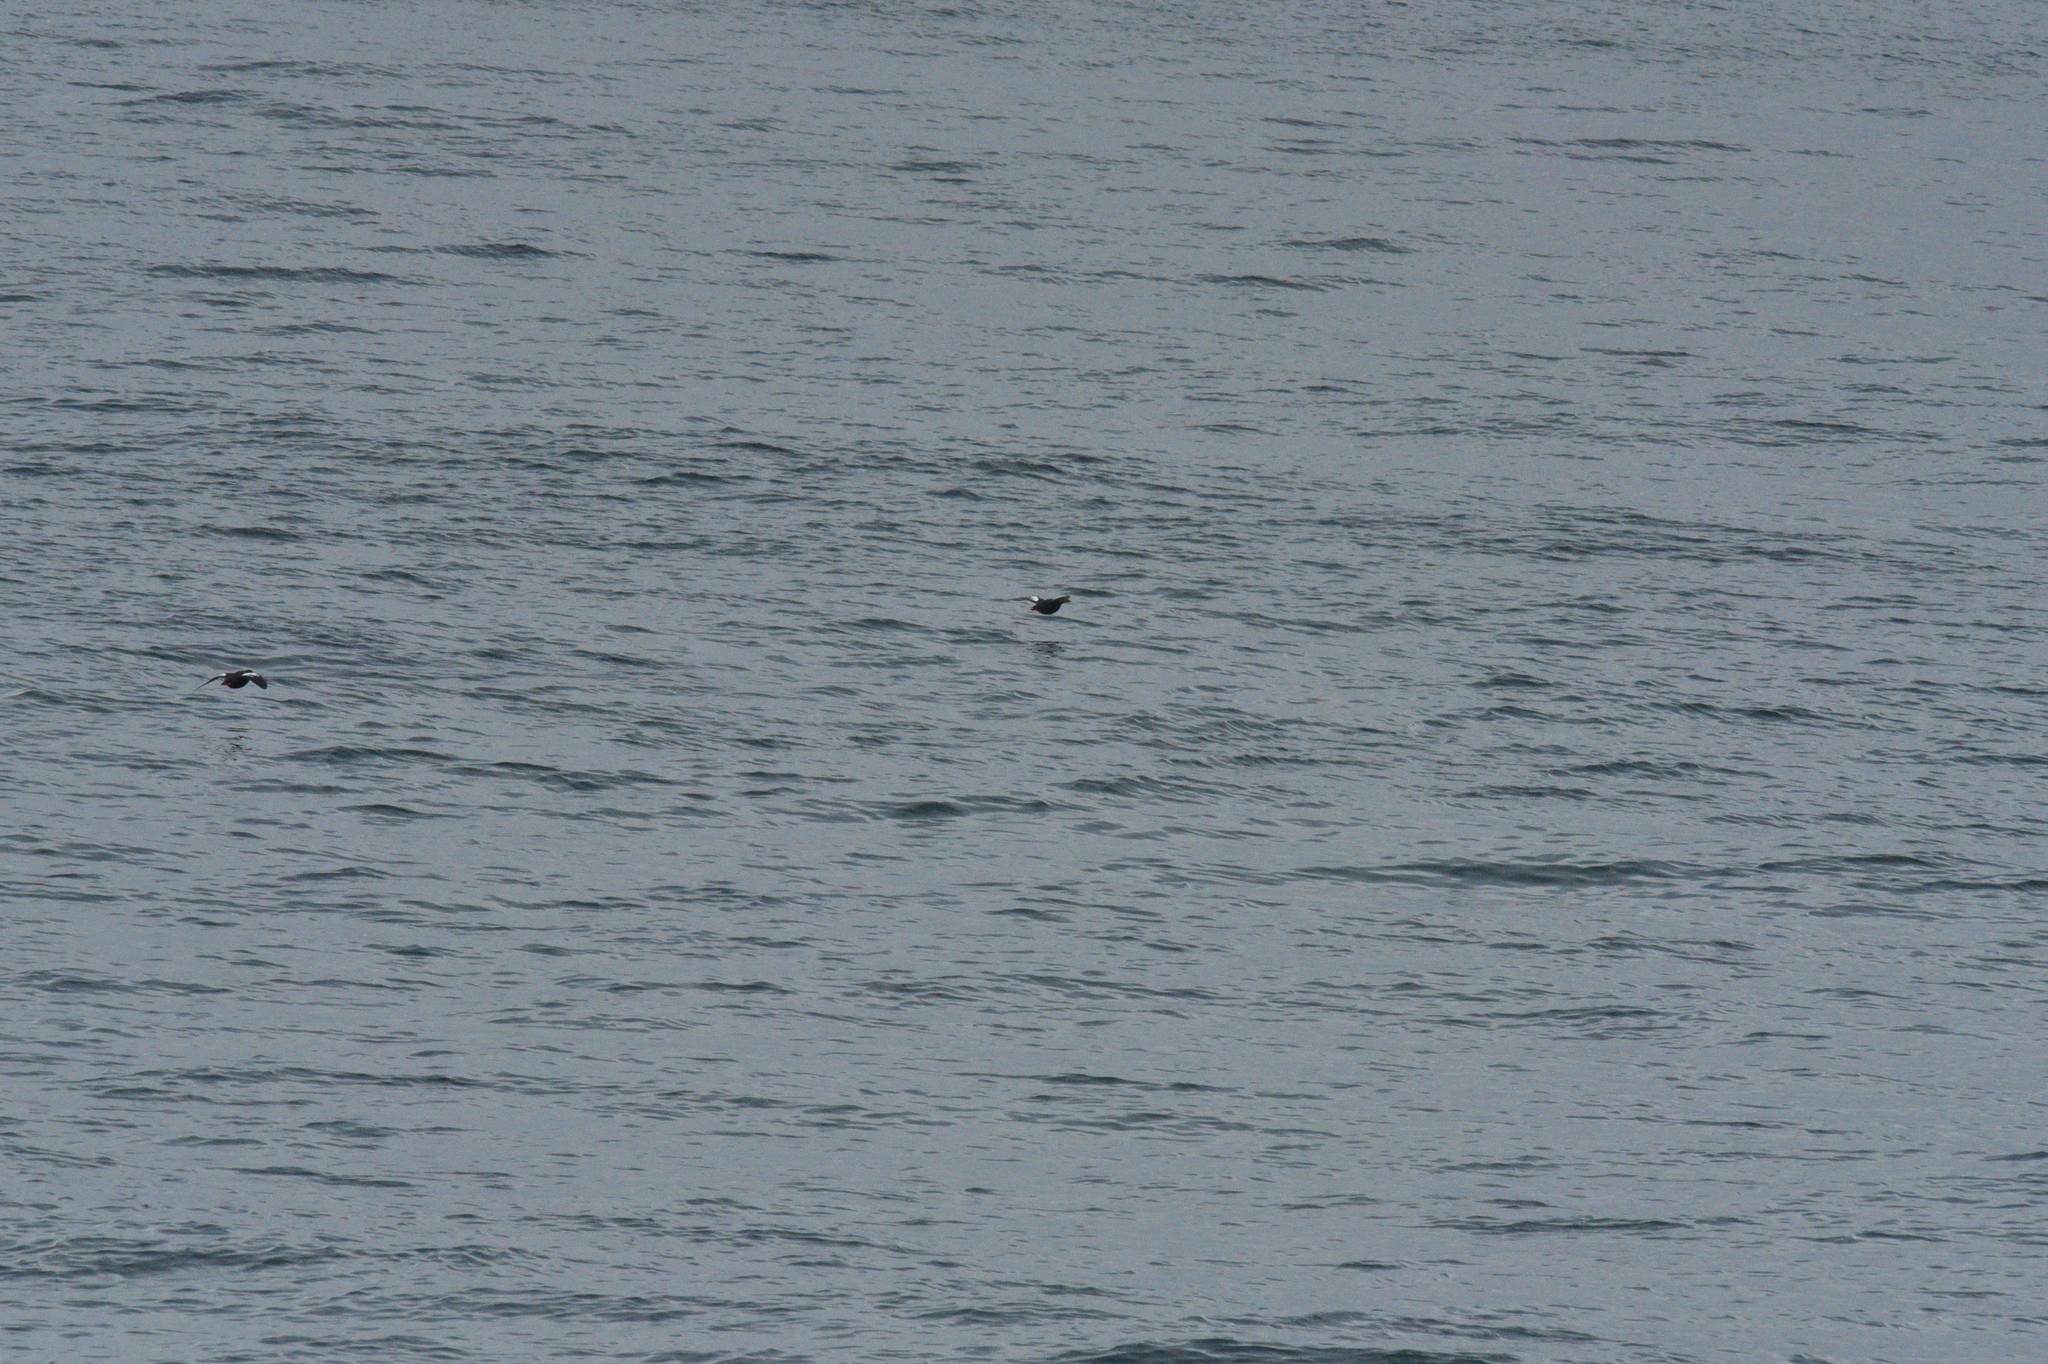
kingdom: Animalia
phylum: Chordata
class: Aves
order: Charadriiformes
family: Alcidae
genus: Cepphus
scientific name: Cepphus columba
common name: Pigeon guillemot
